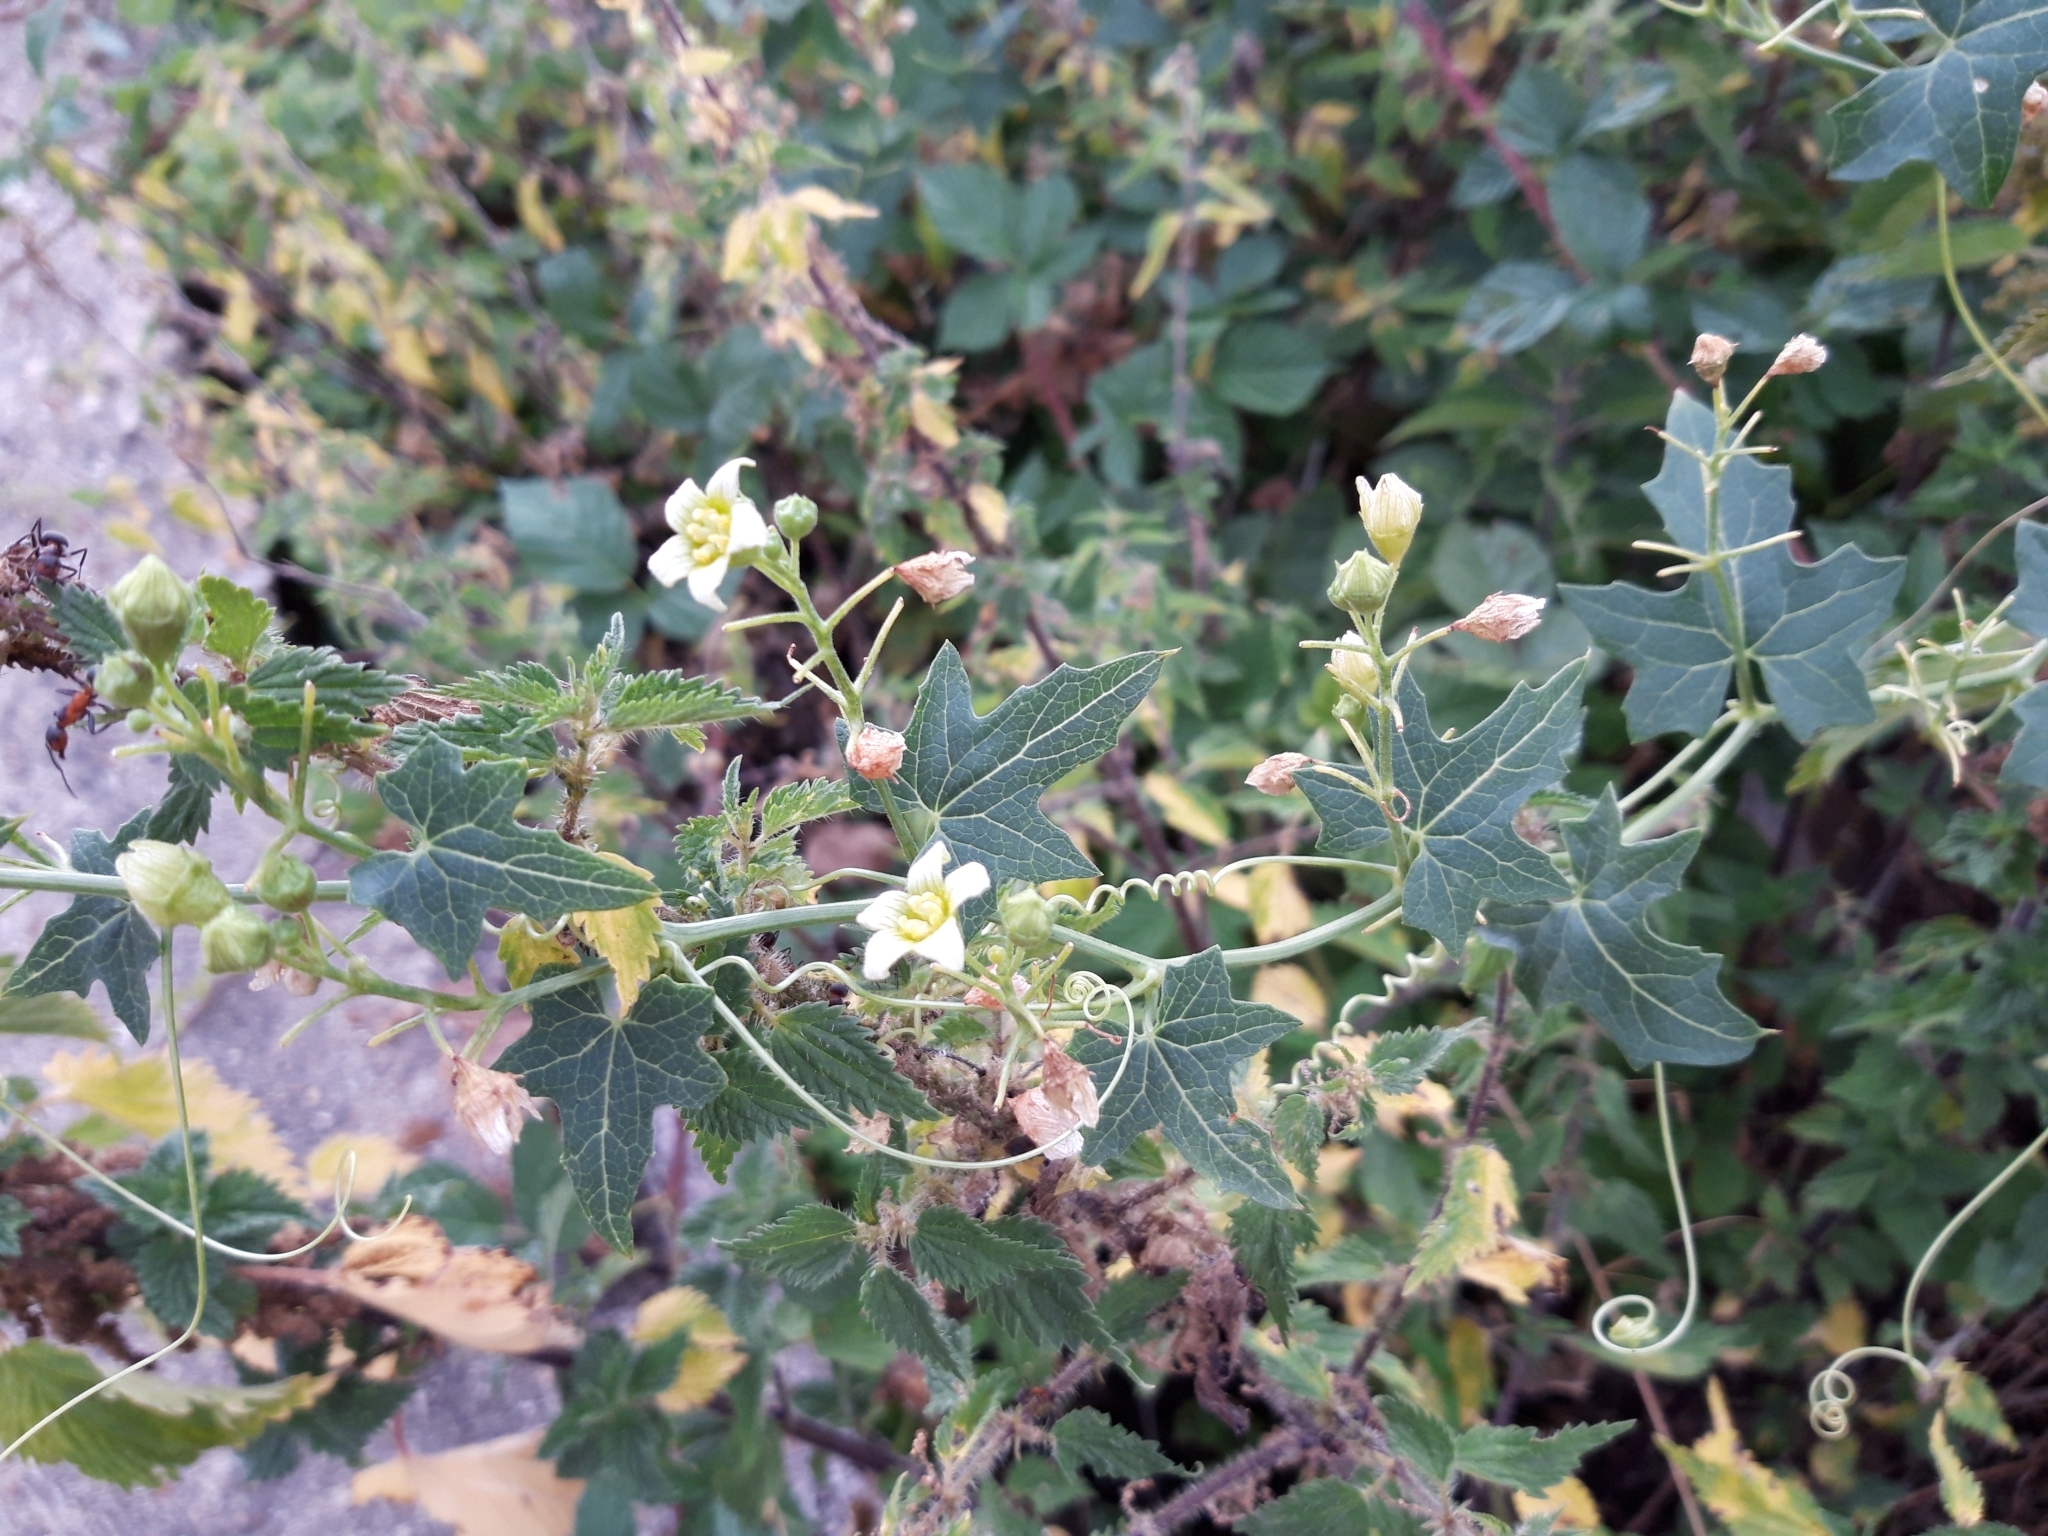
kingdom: Plantae
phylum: Tracheophyta
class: Magnoliopsida
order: Cucurbitales
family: Cucurbitaceae
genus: Bryonia
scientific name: Bryonia dioica
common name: White bryony
